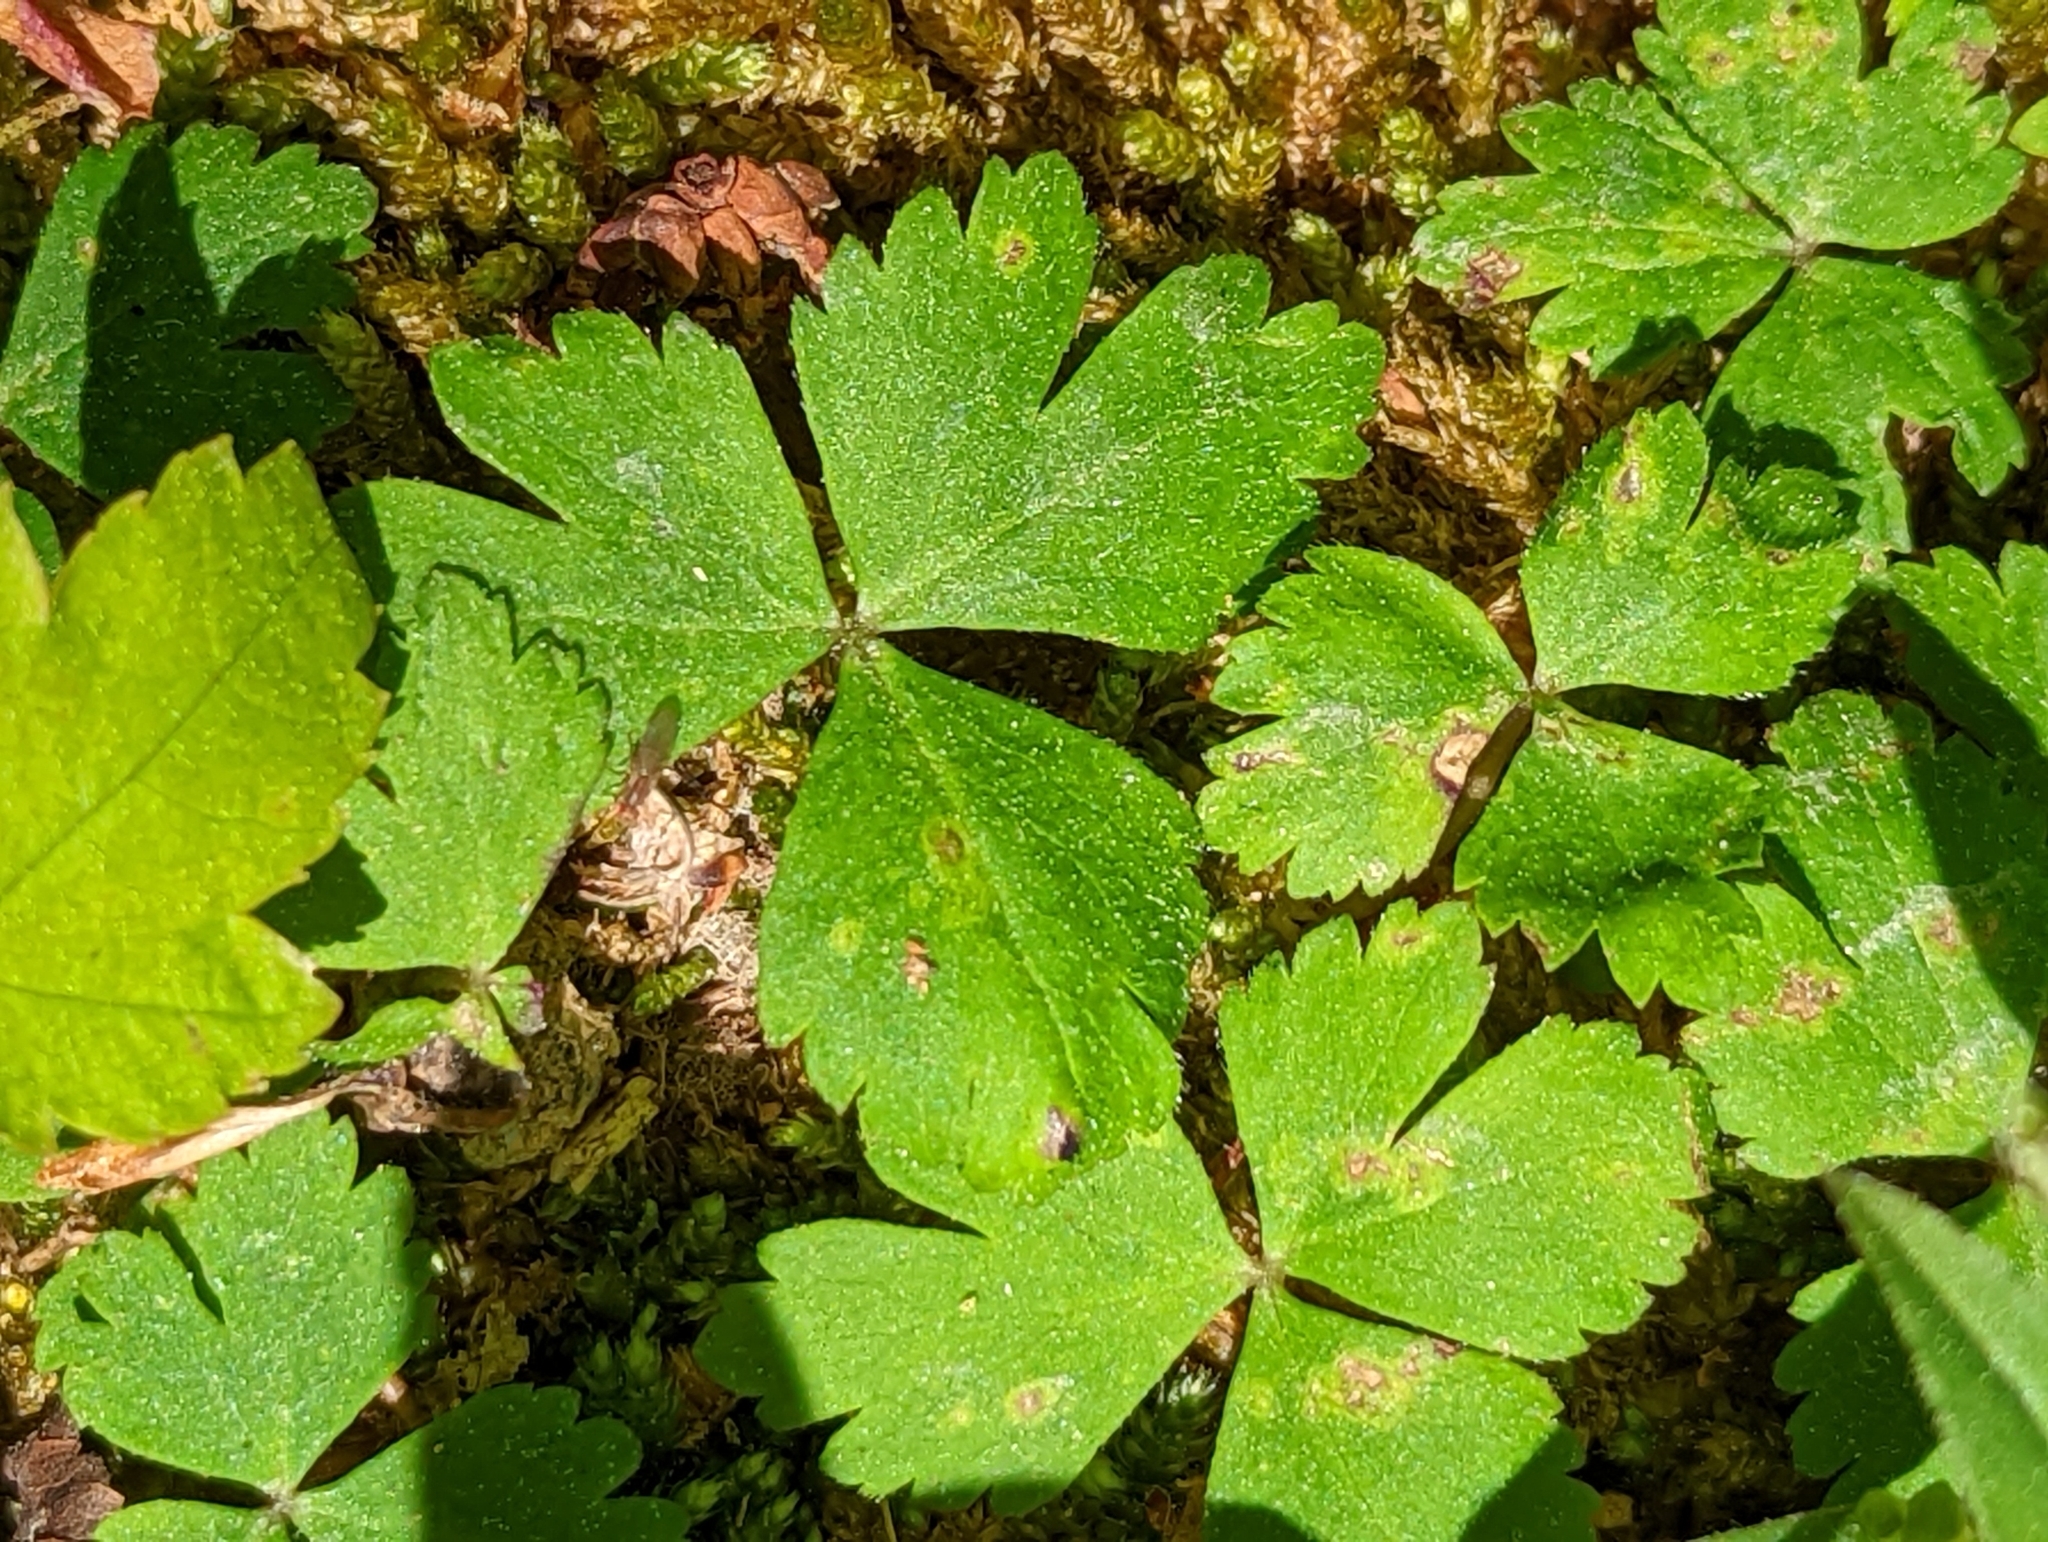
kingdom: Plantae
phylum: Tracheophyta
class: Magnoliopsida
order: Ranunculales
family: Ranunculaceae
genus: Anemone
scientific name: Anemone quinquefolia
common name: Wood anemone
